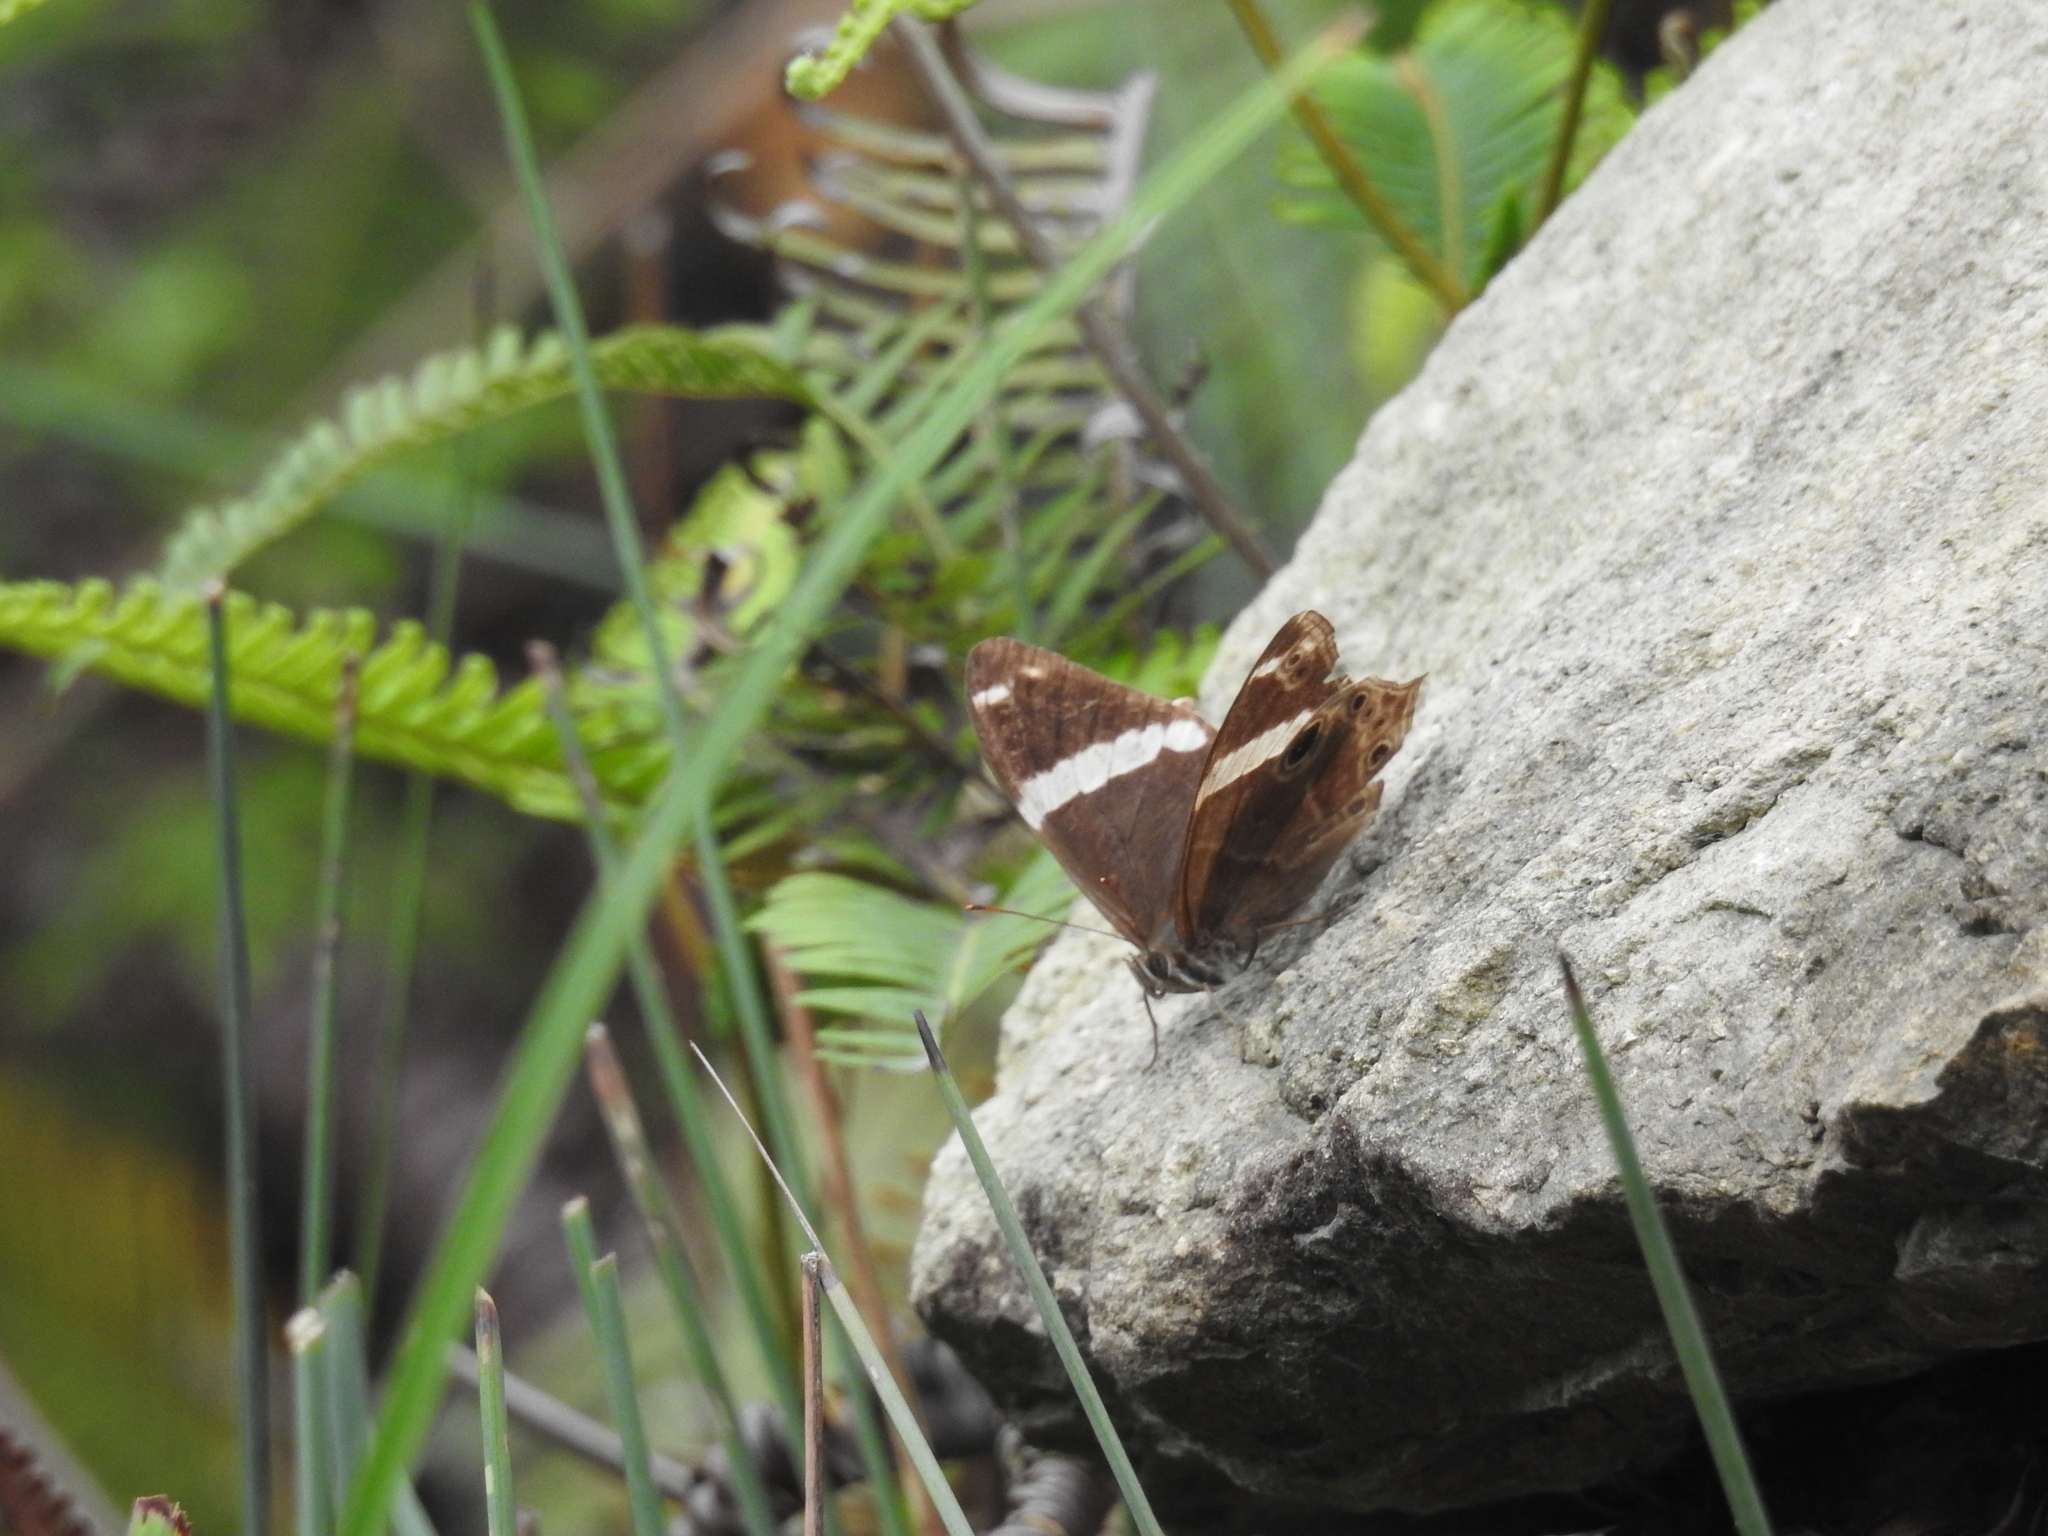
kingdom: Animalia
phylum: Arthropoda
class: Insecta
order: Lepidoptera
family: Nymphalidae
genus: Lethe
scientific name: Lethe confusa
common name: Banded treebrown
